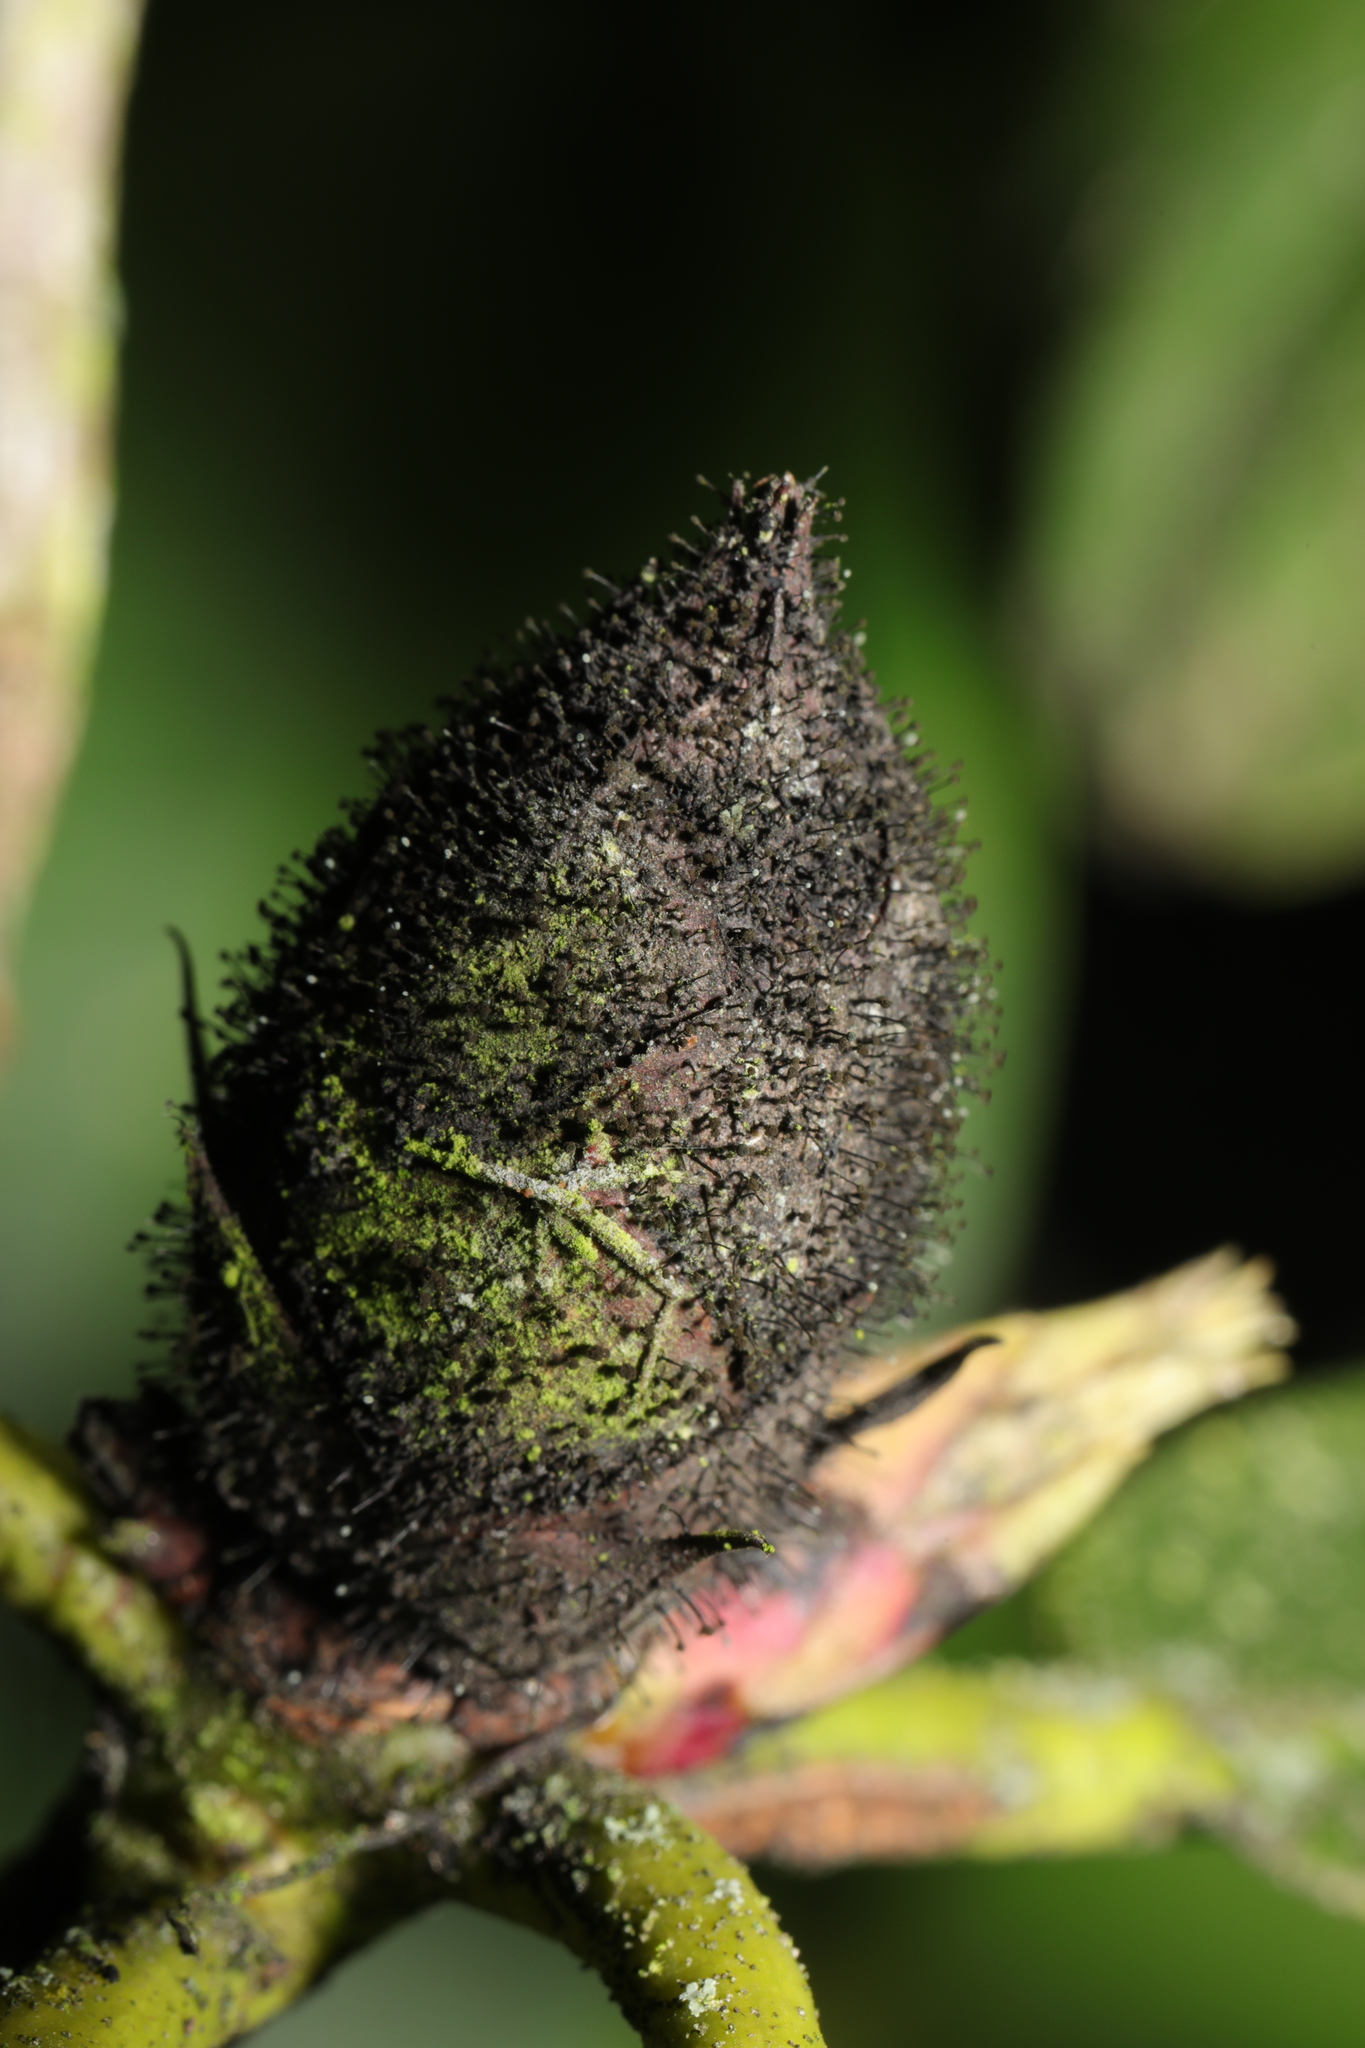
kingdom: Fungi
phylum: Ascomycota
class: Dothideomycetes
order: Pleosporales
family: Melanommataceae
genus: Seifertia
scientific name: Seifertia azaleae
